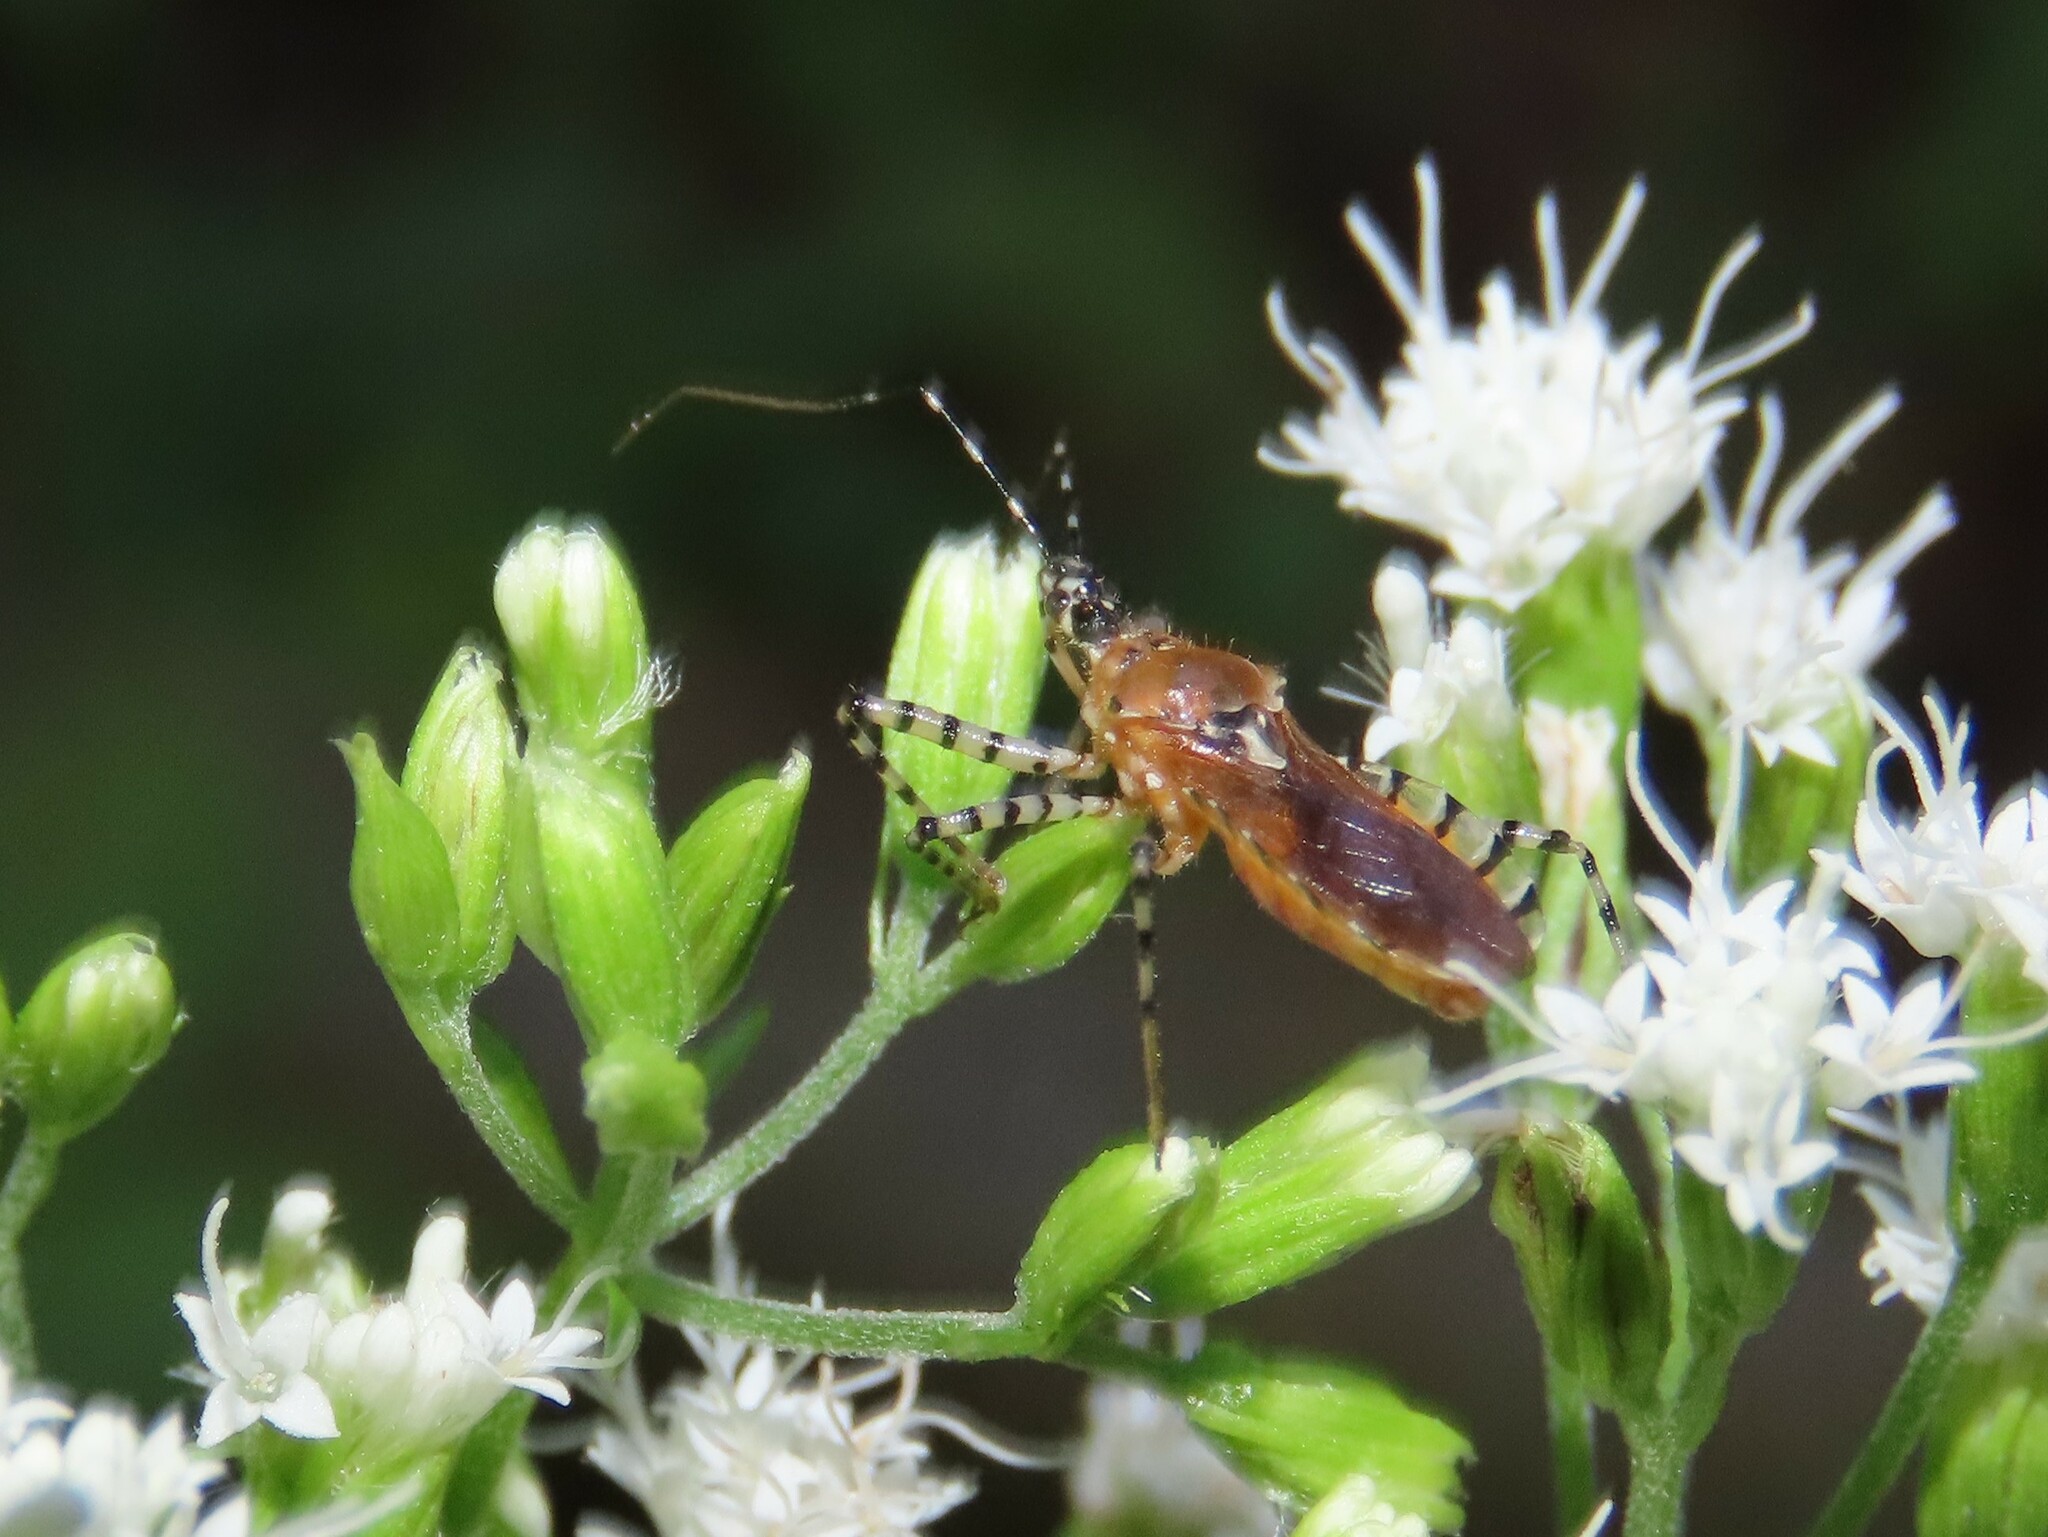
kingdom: Animalia
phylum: Arthropoda
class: Insecta
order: Hemiptera
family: Reduviidae
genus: Pselliopus
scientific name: Pselliopus cinctus
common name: Ringed assassin bug
